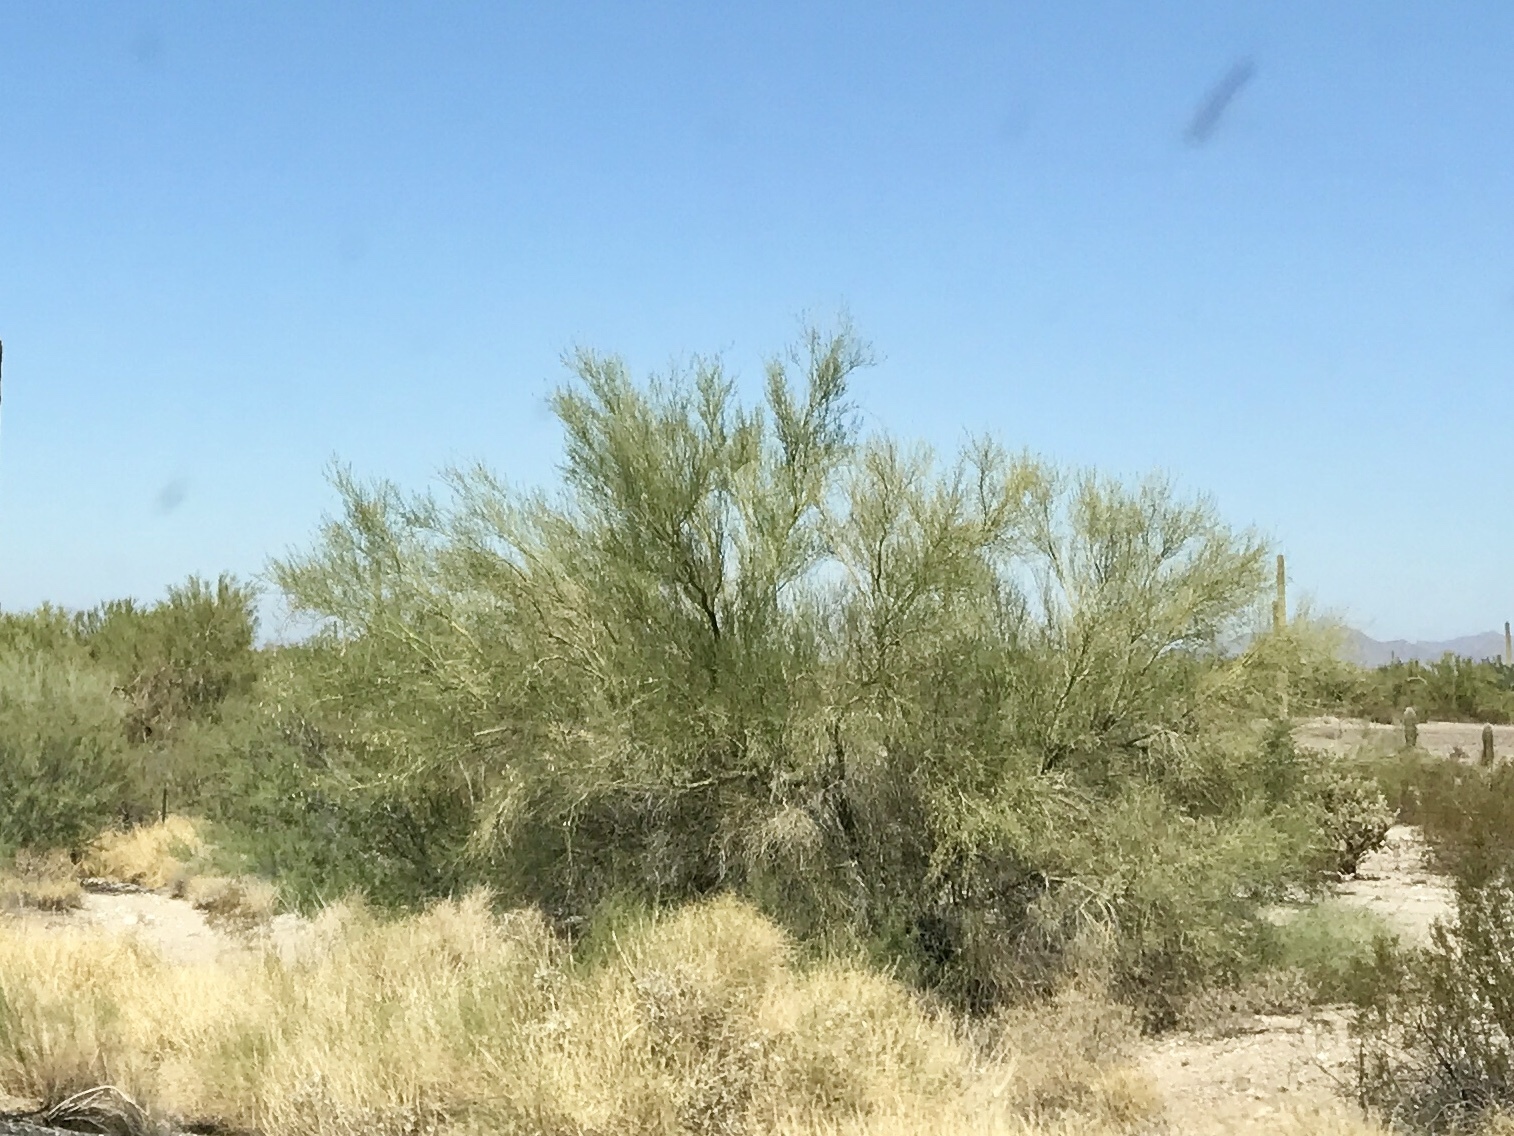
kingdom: Plantae
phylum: Tracheophyta
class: Magnoliopsida
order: Fabales
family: Fabaceae
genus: Parkinsonia
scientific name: Parkinsonia florida
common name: Blue paloverde
